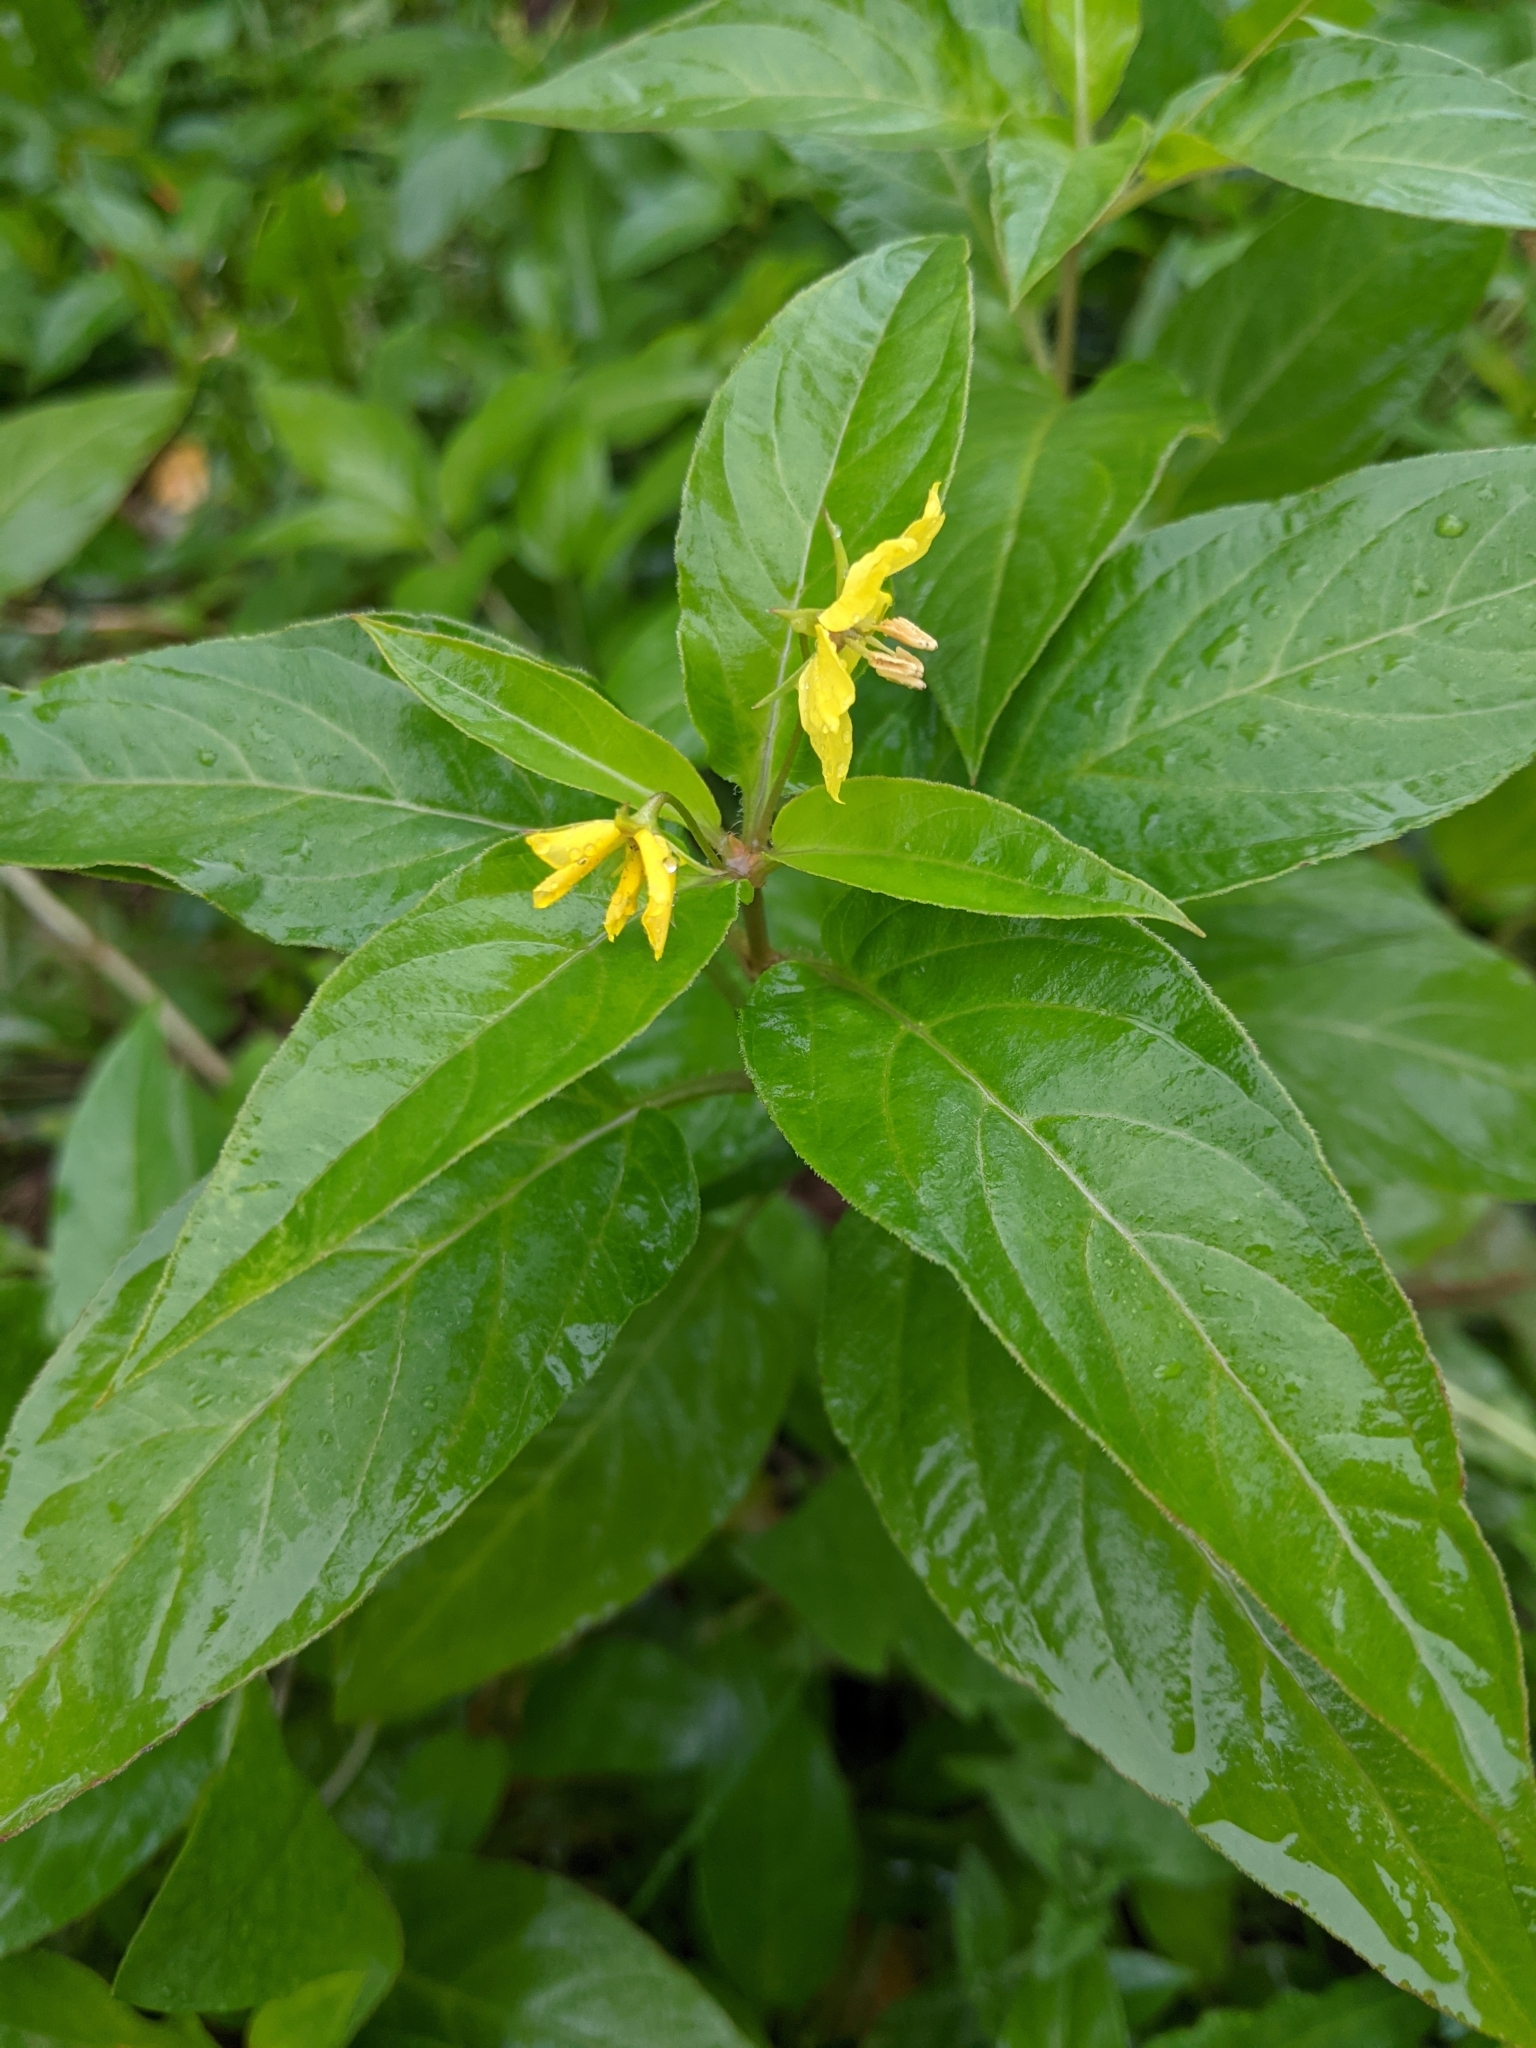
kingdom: Plantae
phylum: Tracheophyta
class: Magnoliopsida
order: Ericales
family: Primulaceae
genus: Lysimachia
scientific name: Lysimachia ciliata
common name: Fringed loosestrife
